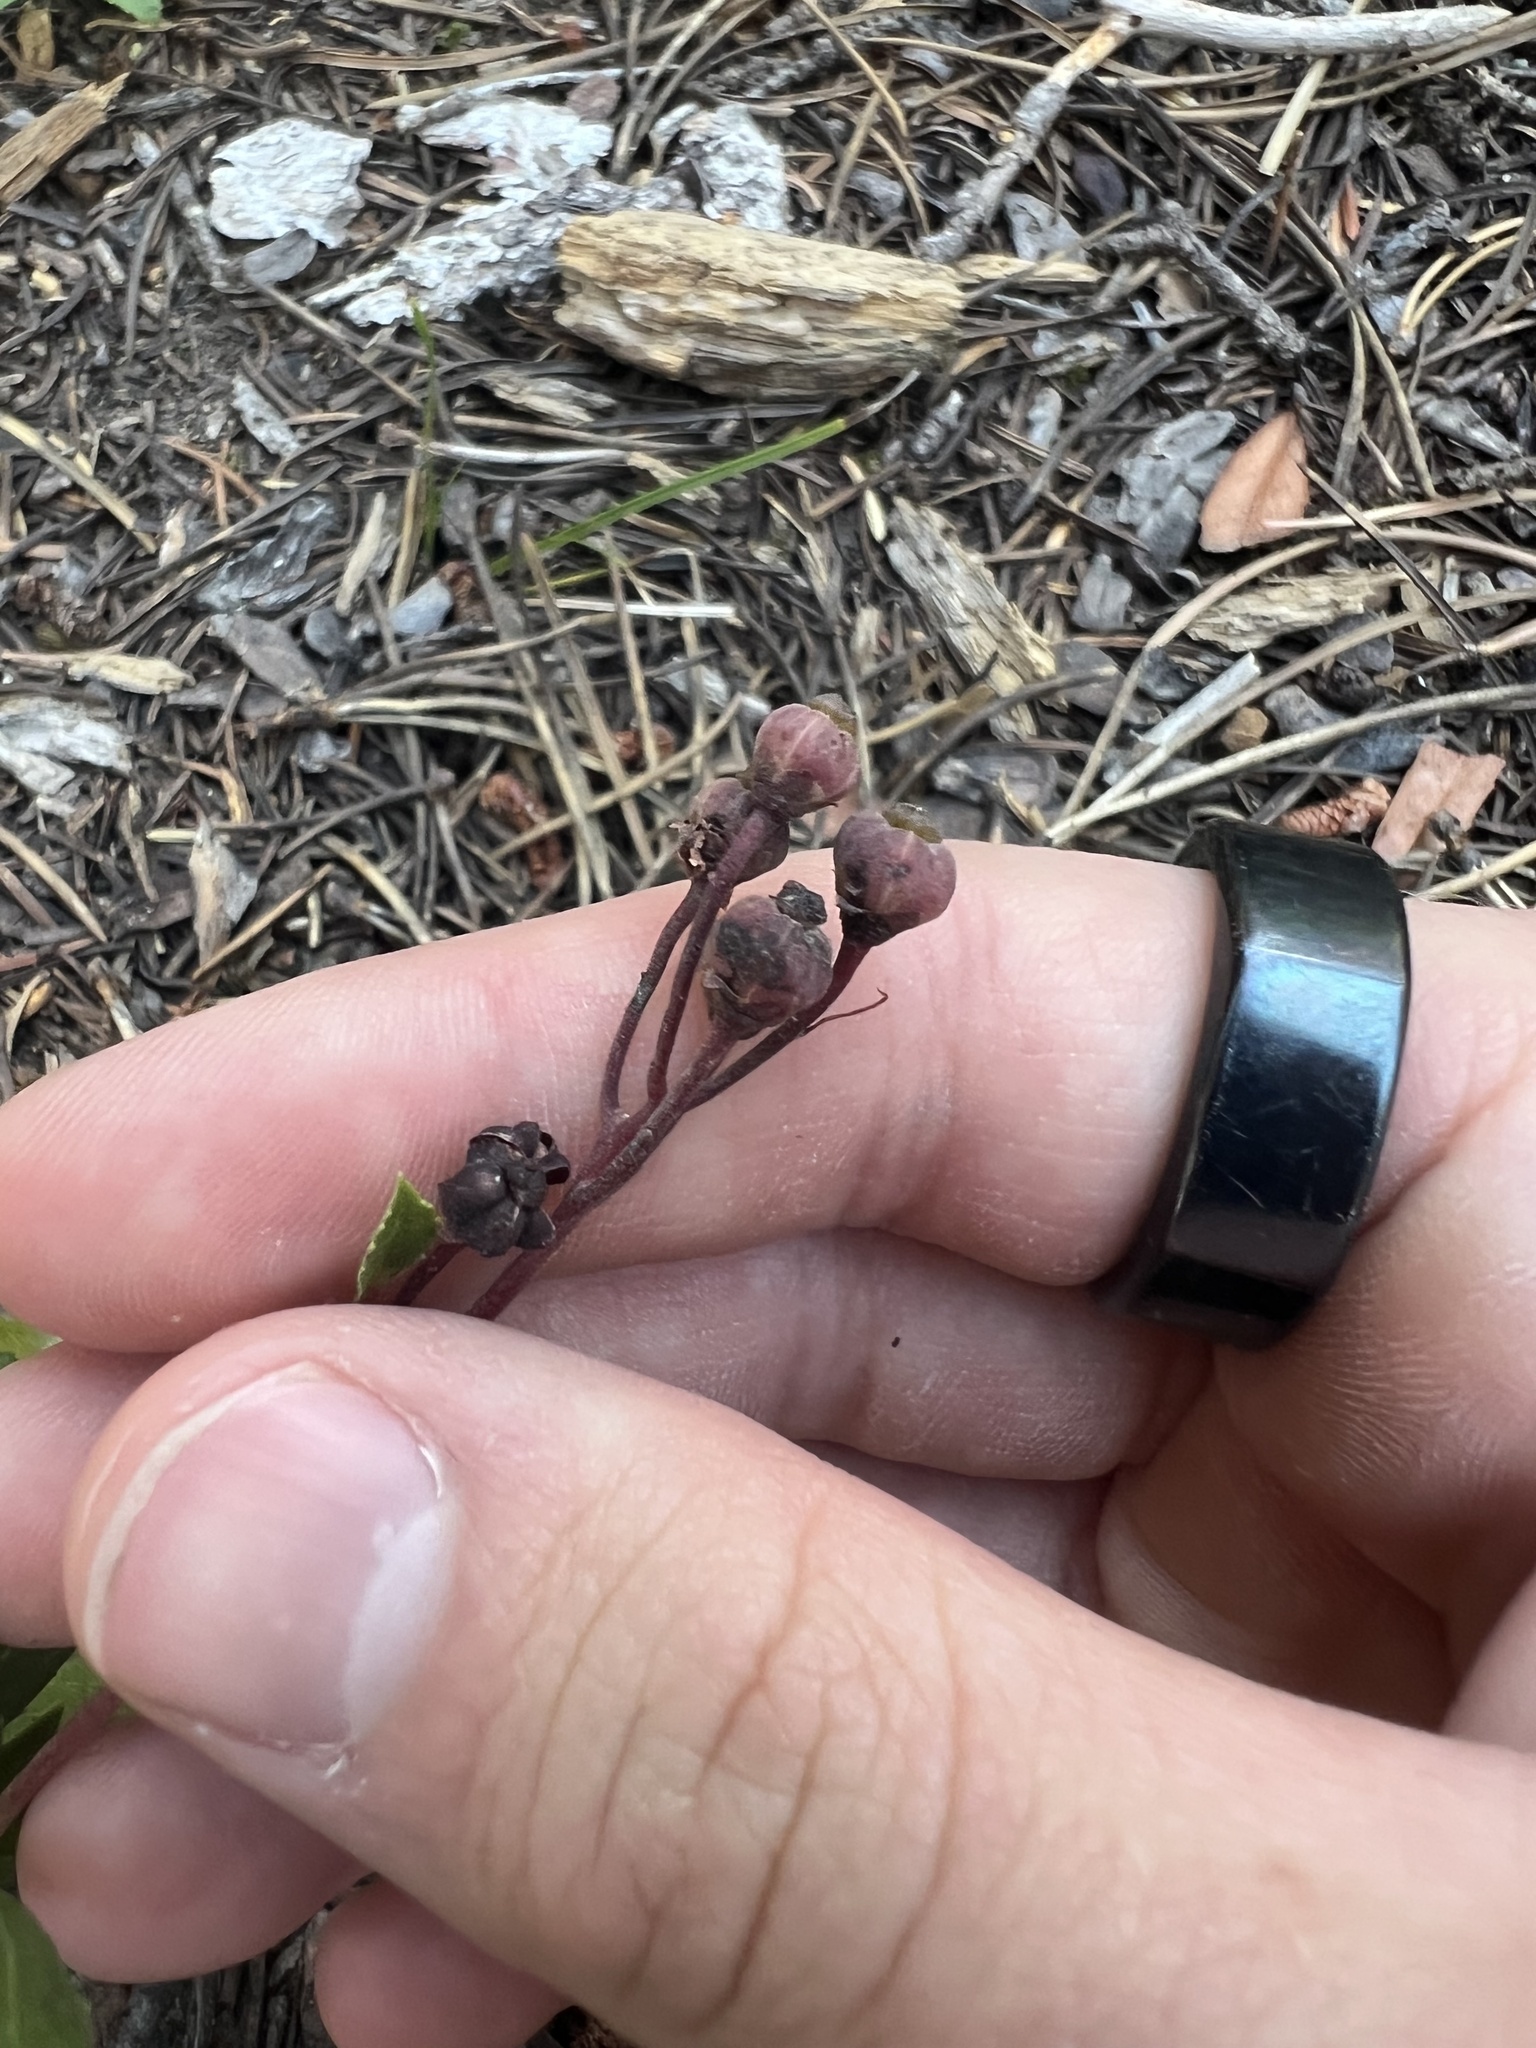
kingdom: Plantae
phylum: Tracheophyta
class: Magnoliopsida
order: Ericales
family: Ericaceae
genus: Chimaphila
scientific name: Chimaphila umbellata
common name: Pipsissewa
